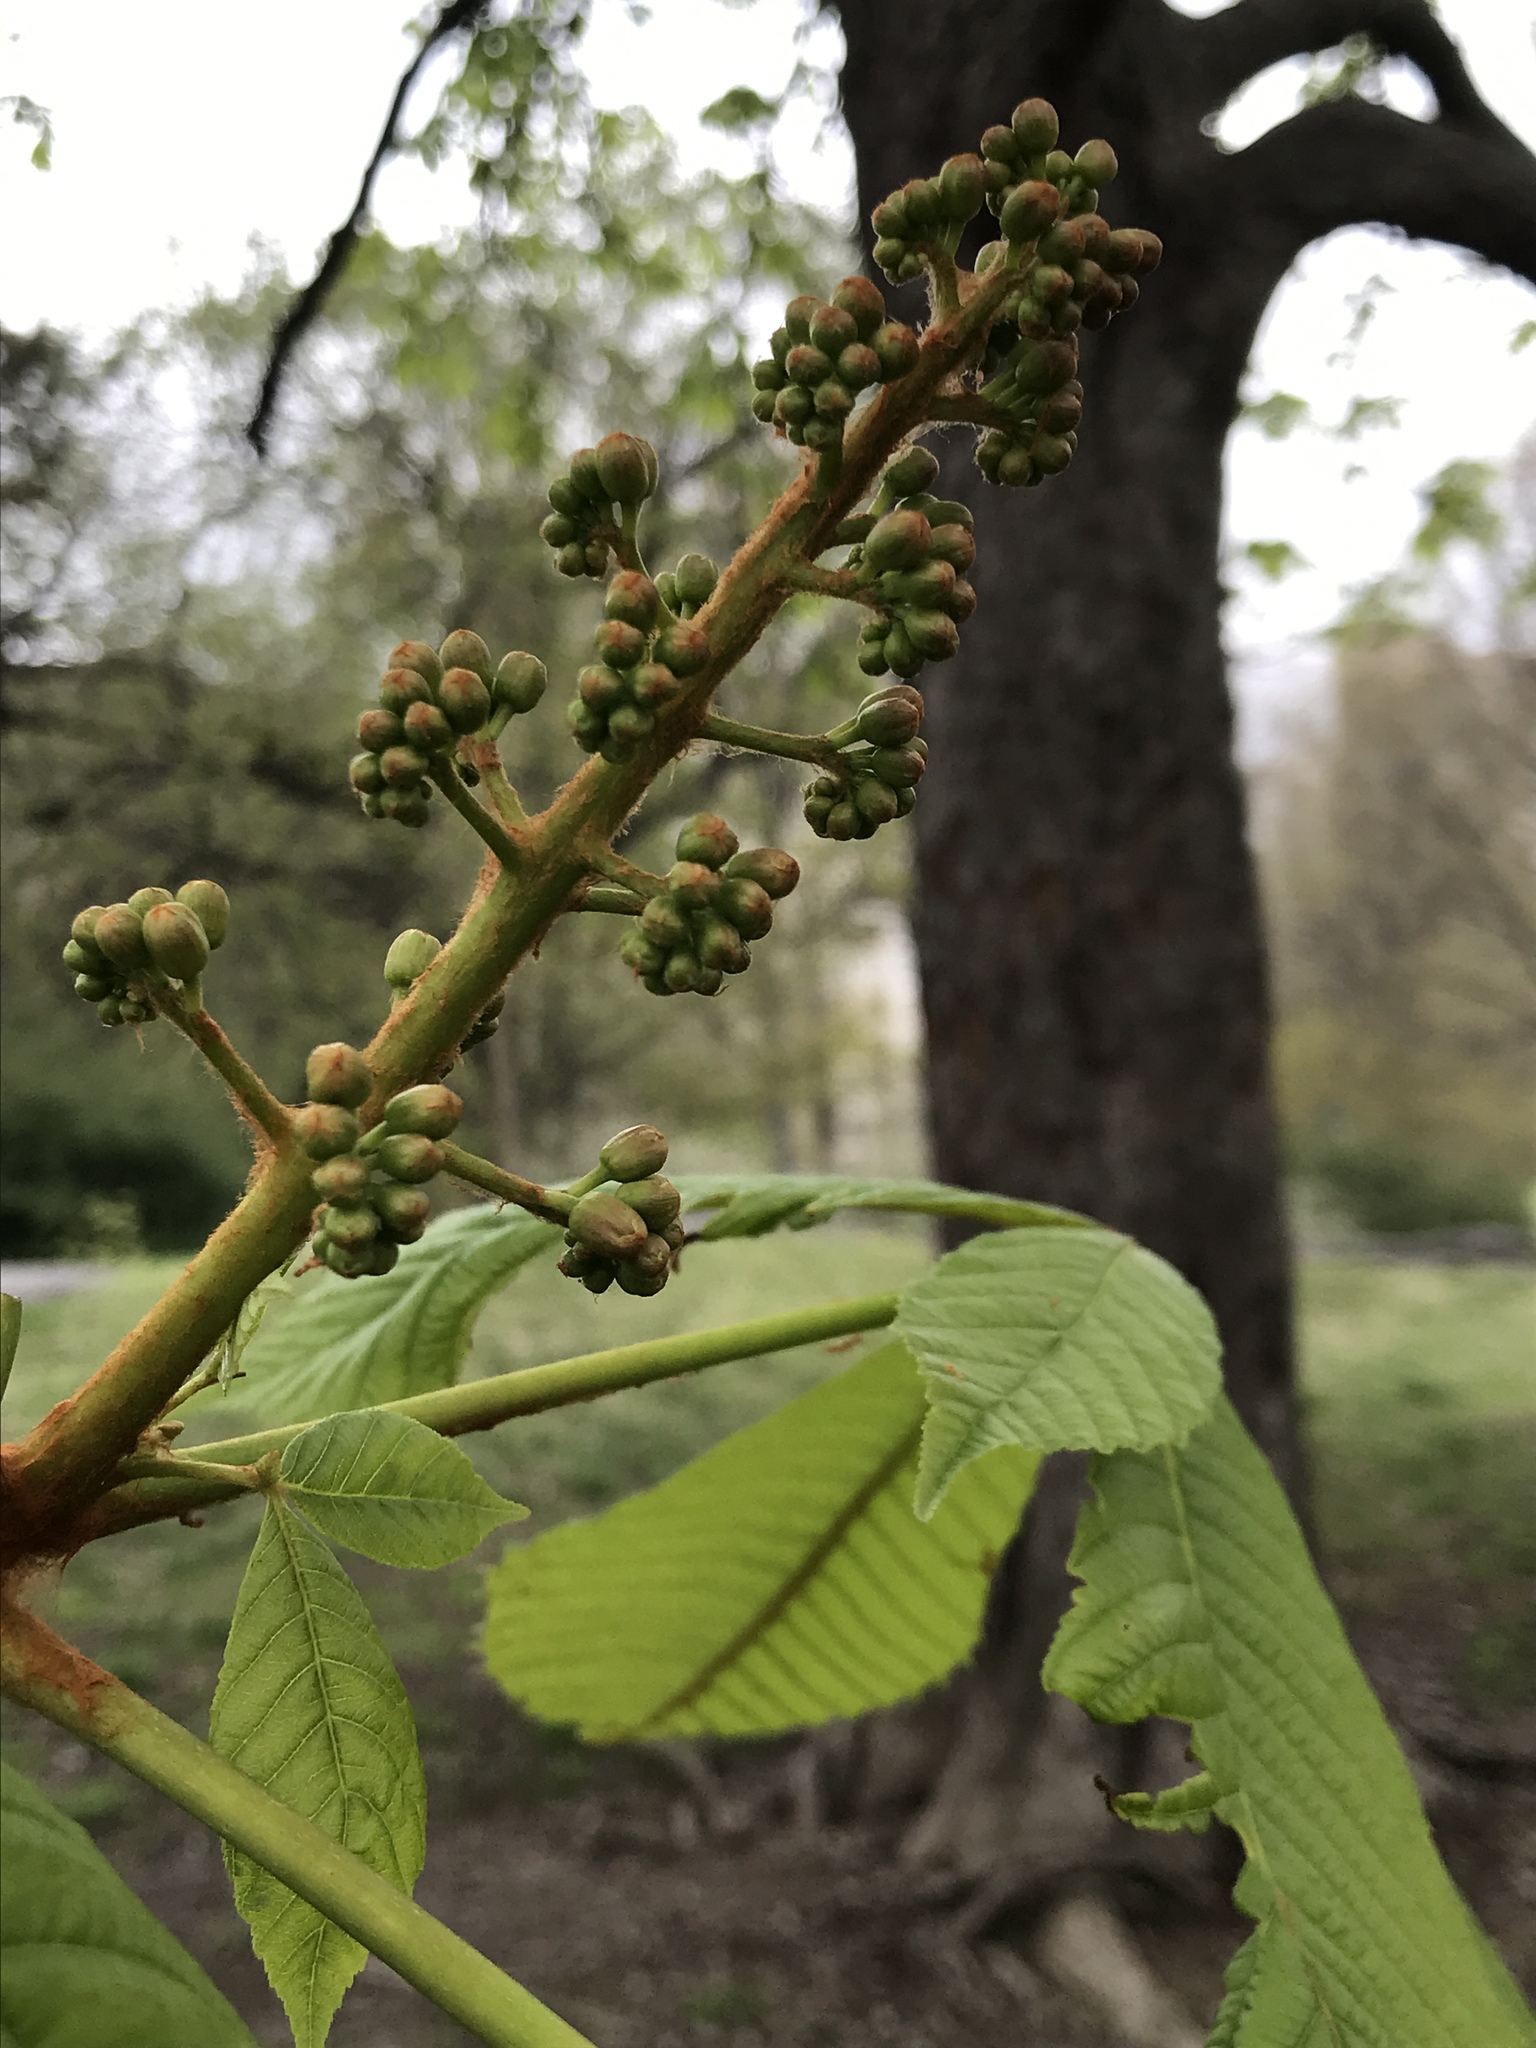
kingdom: Plantae
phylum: Tracheophyta
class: Magnoliopsida
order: Sapindales
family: Sapindaceae
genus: Aesculus
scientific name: Aesculus hippocastanum
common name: Horse-chestnut
